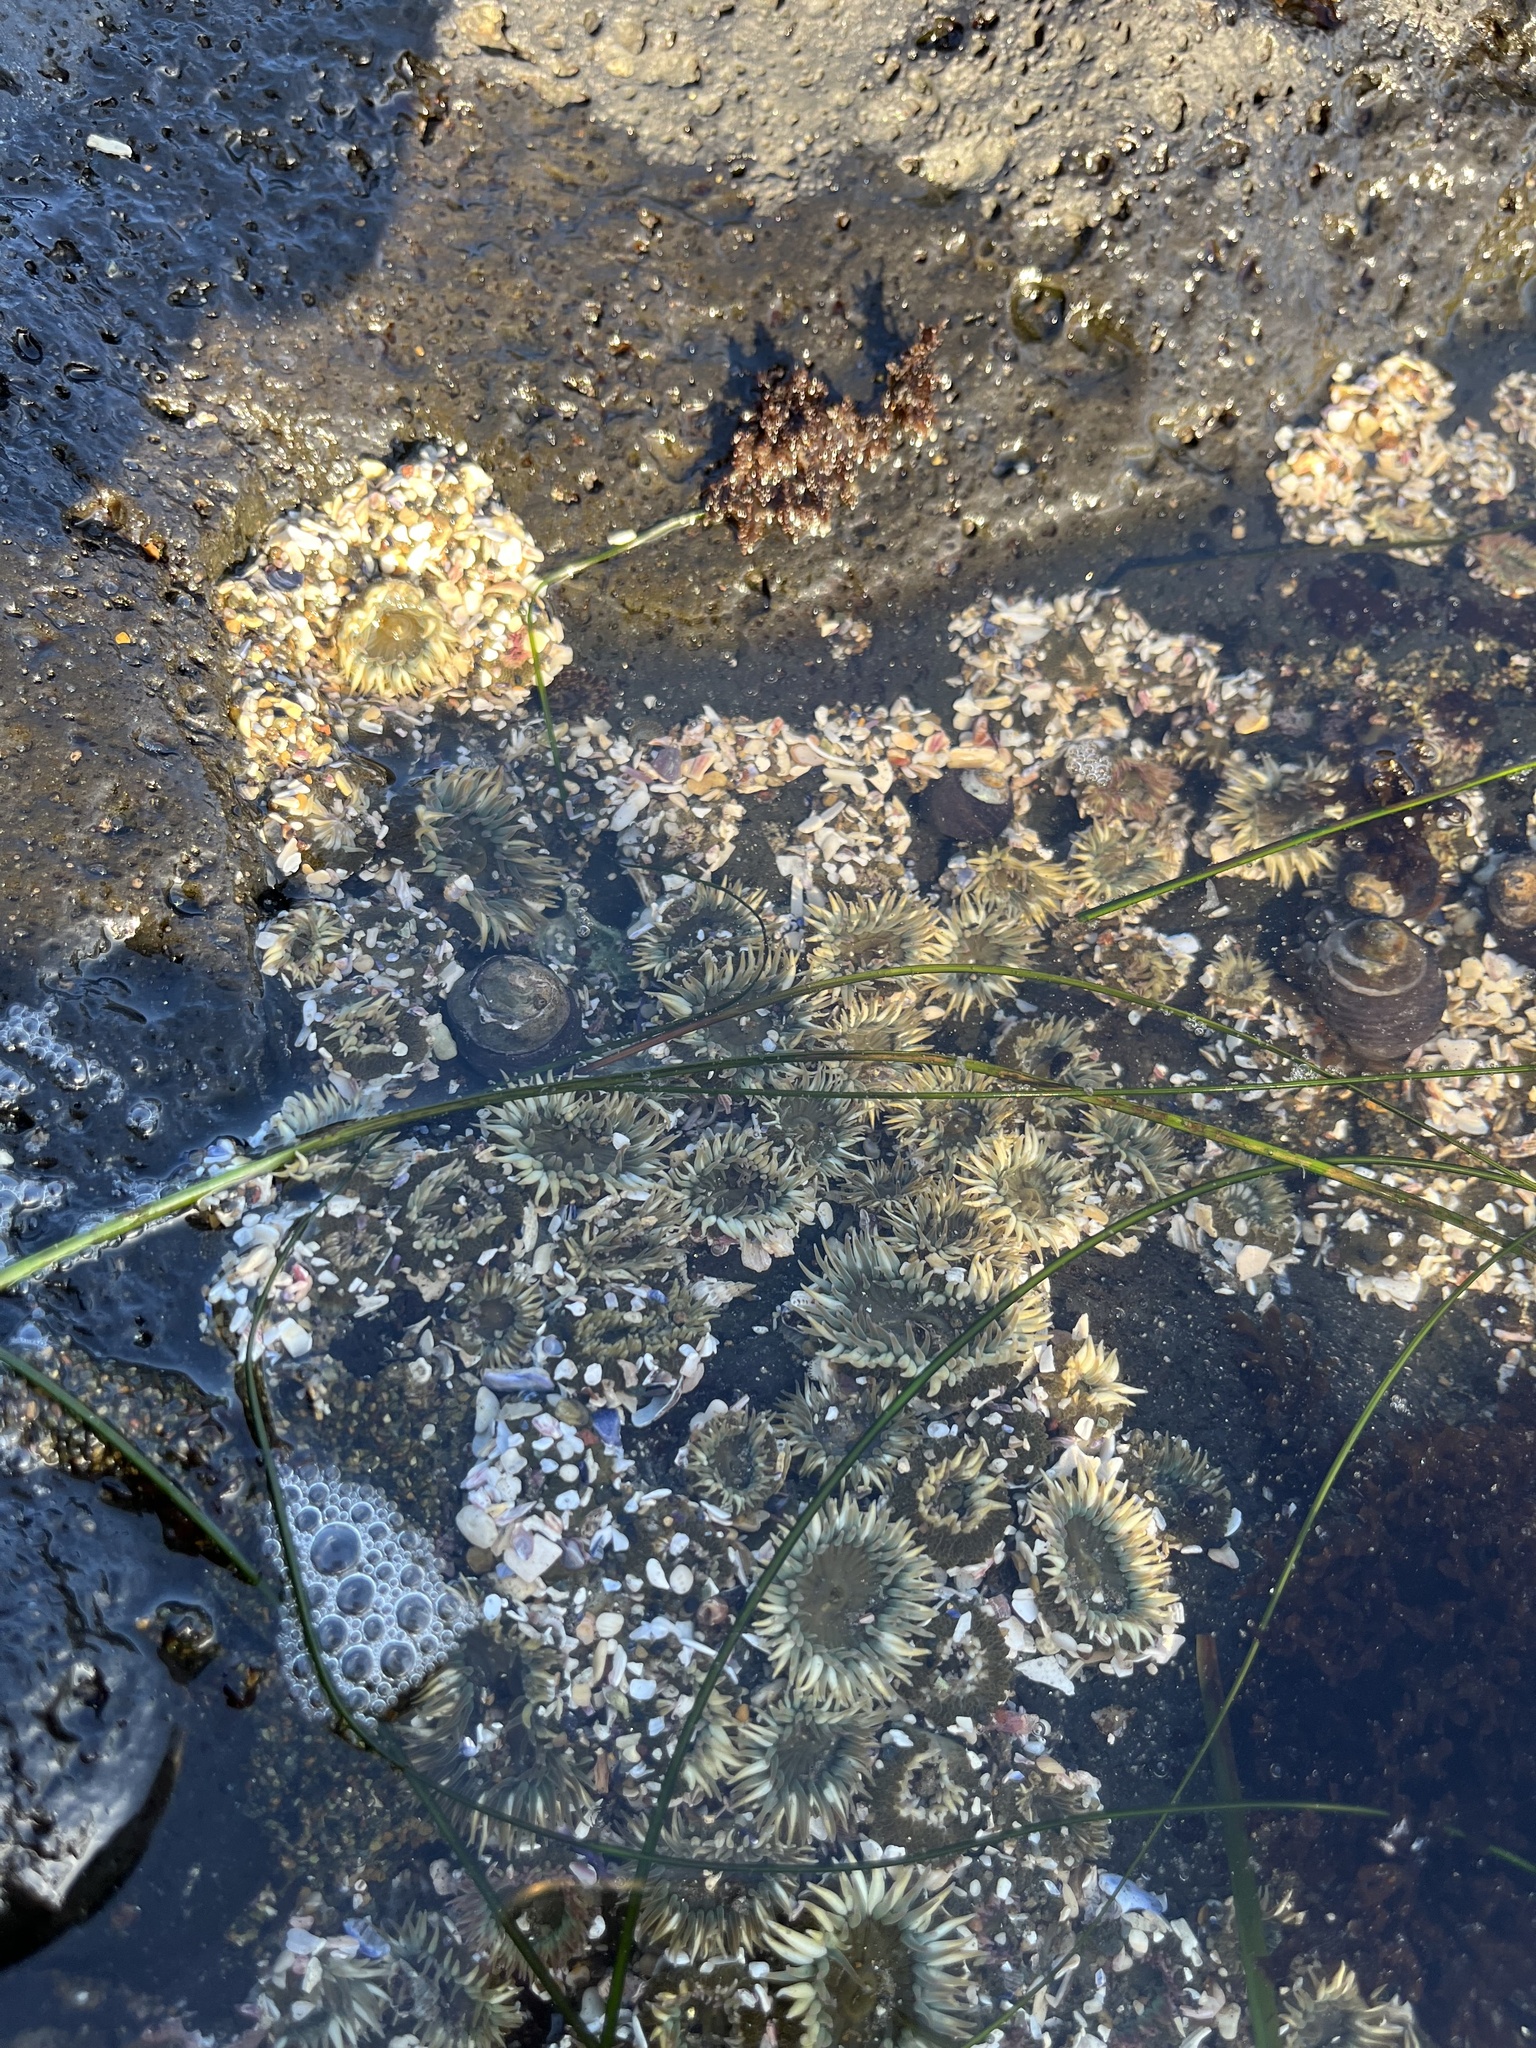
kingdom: Animalia
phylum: Cnidaria
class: Anthozoa
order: Actiniaria
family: Actiniidae
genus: Anthopleura
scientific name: Anthopleura elegantissima
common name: Clonal anemone
